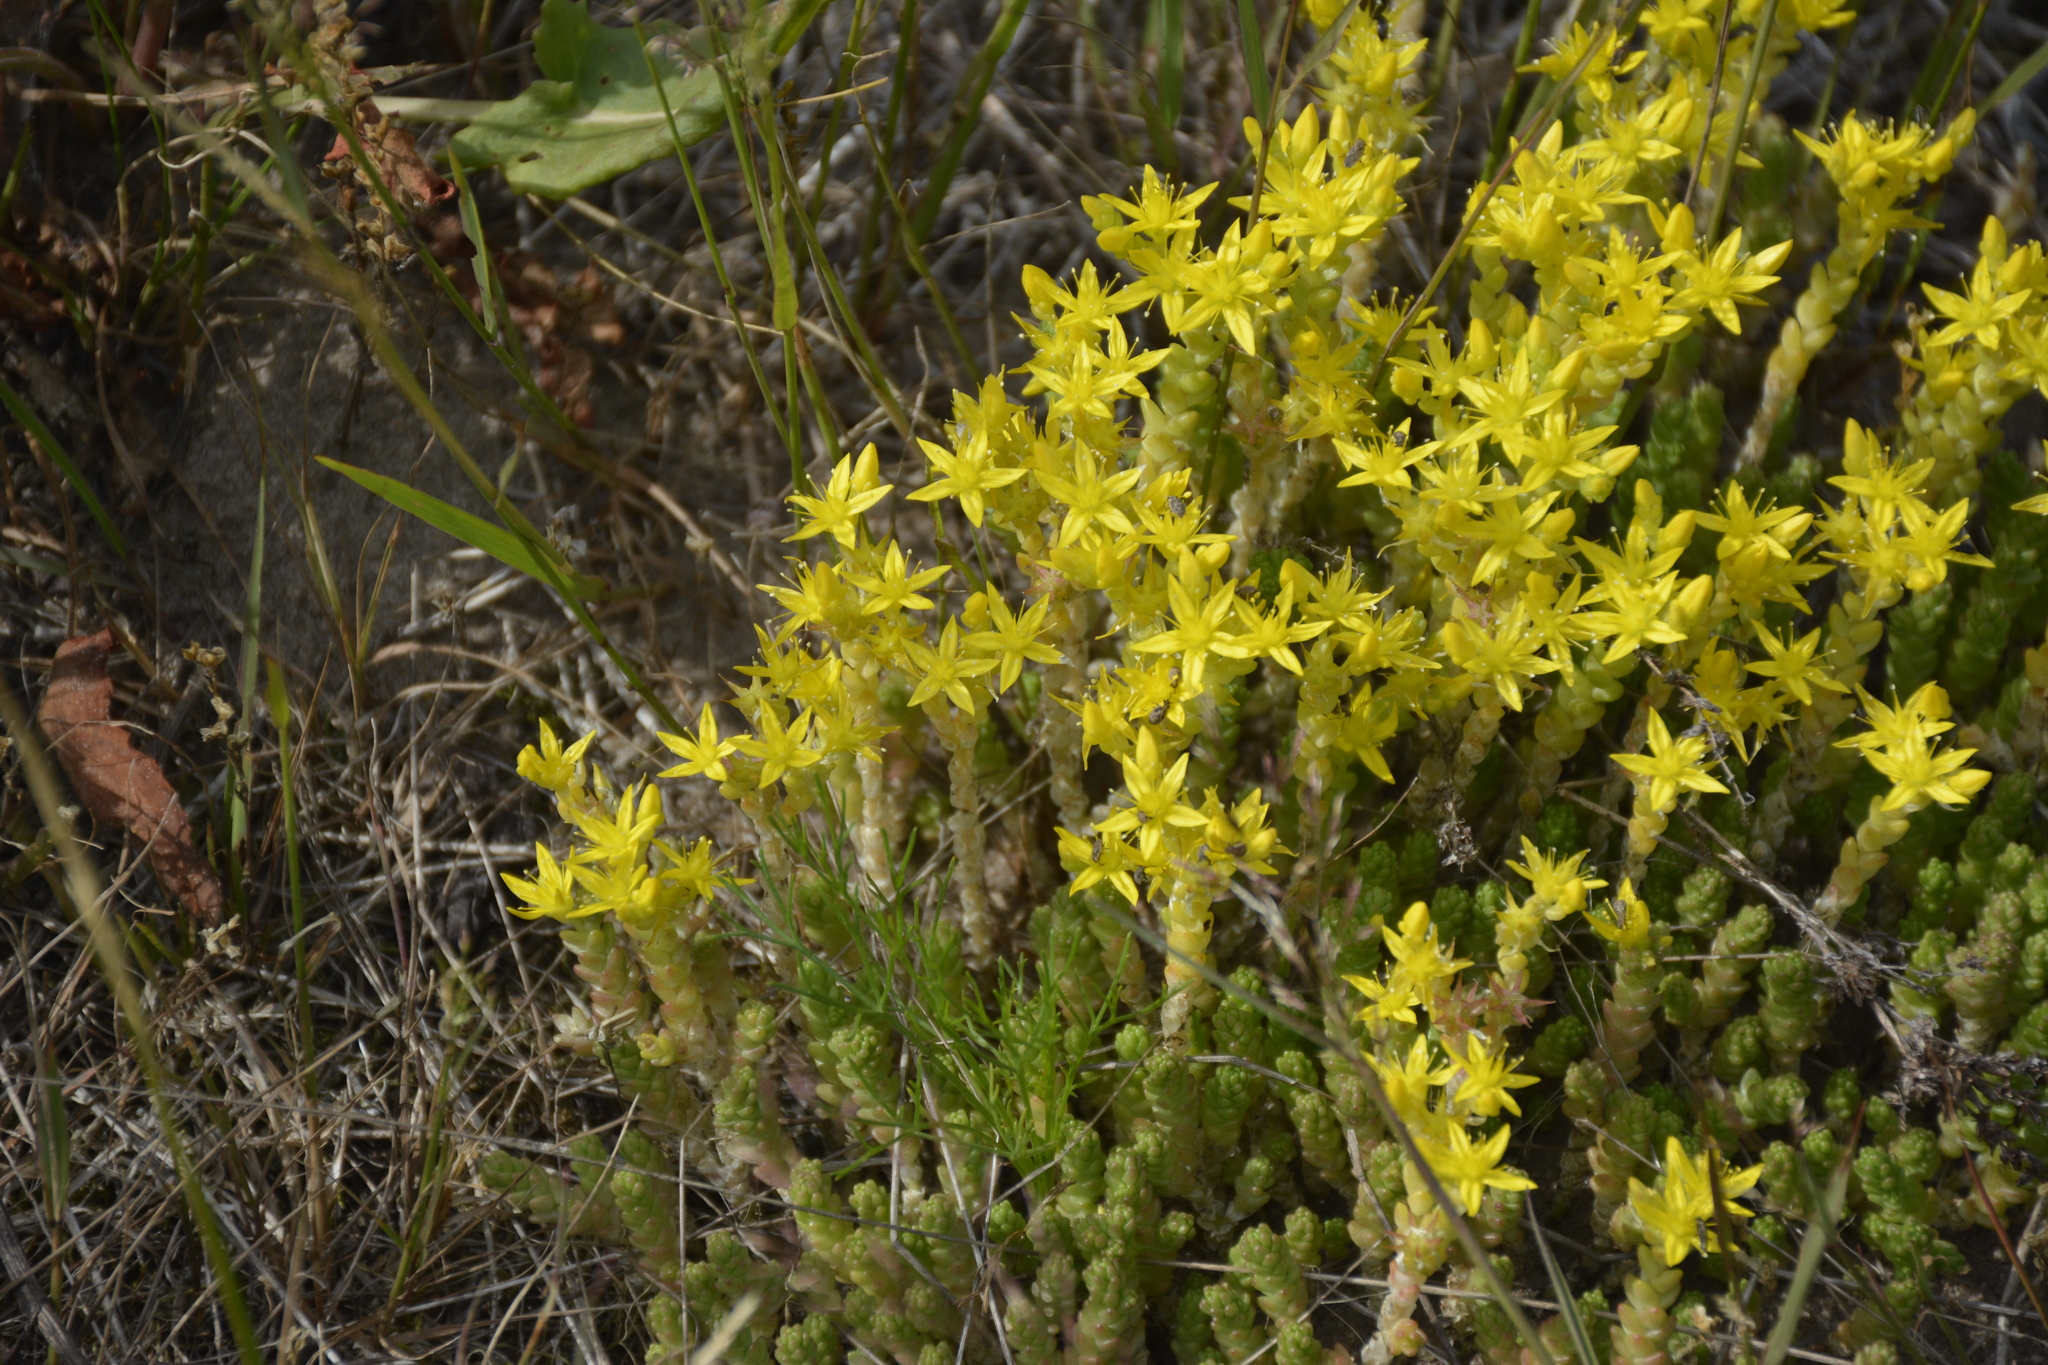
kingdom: Plantae
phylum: Tracheophyta
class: Magnoliopsida
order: Saxifragales
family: Crassulaceae
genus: Sedum
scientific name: Sedum acre
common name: Biting stonecrop
